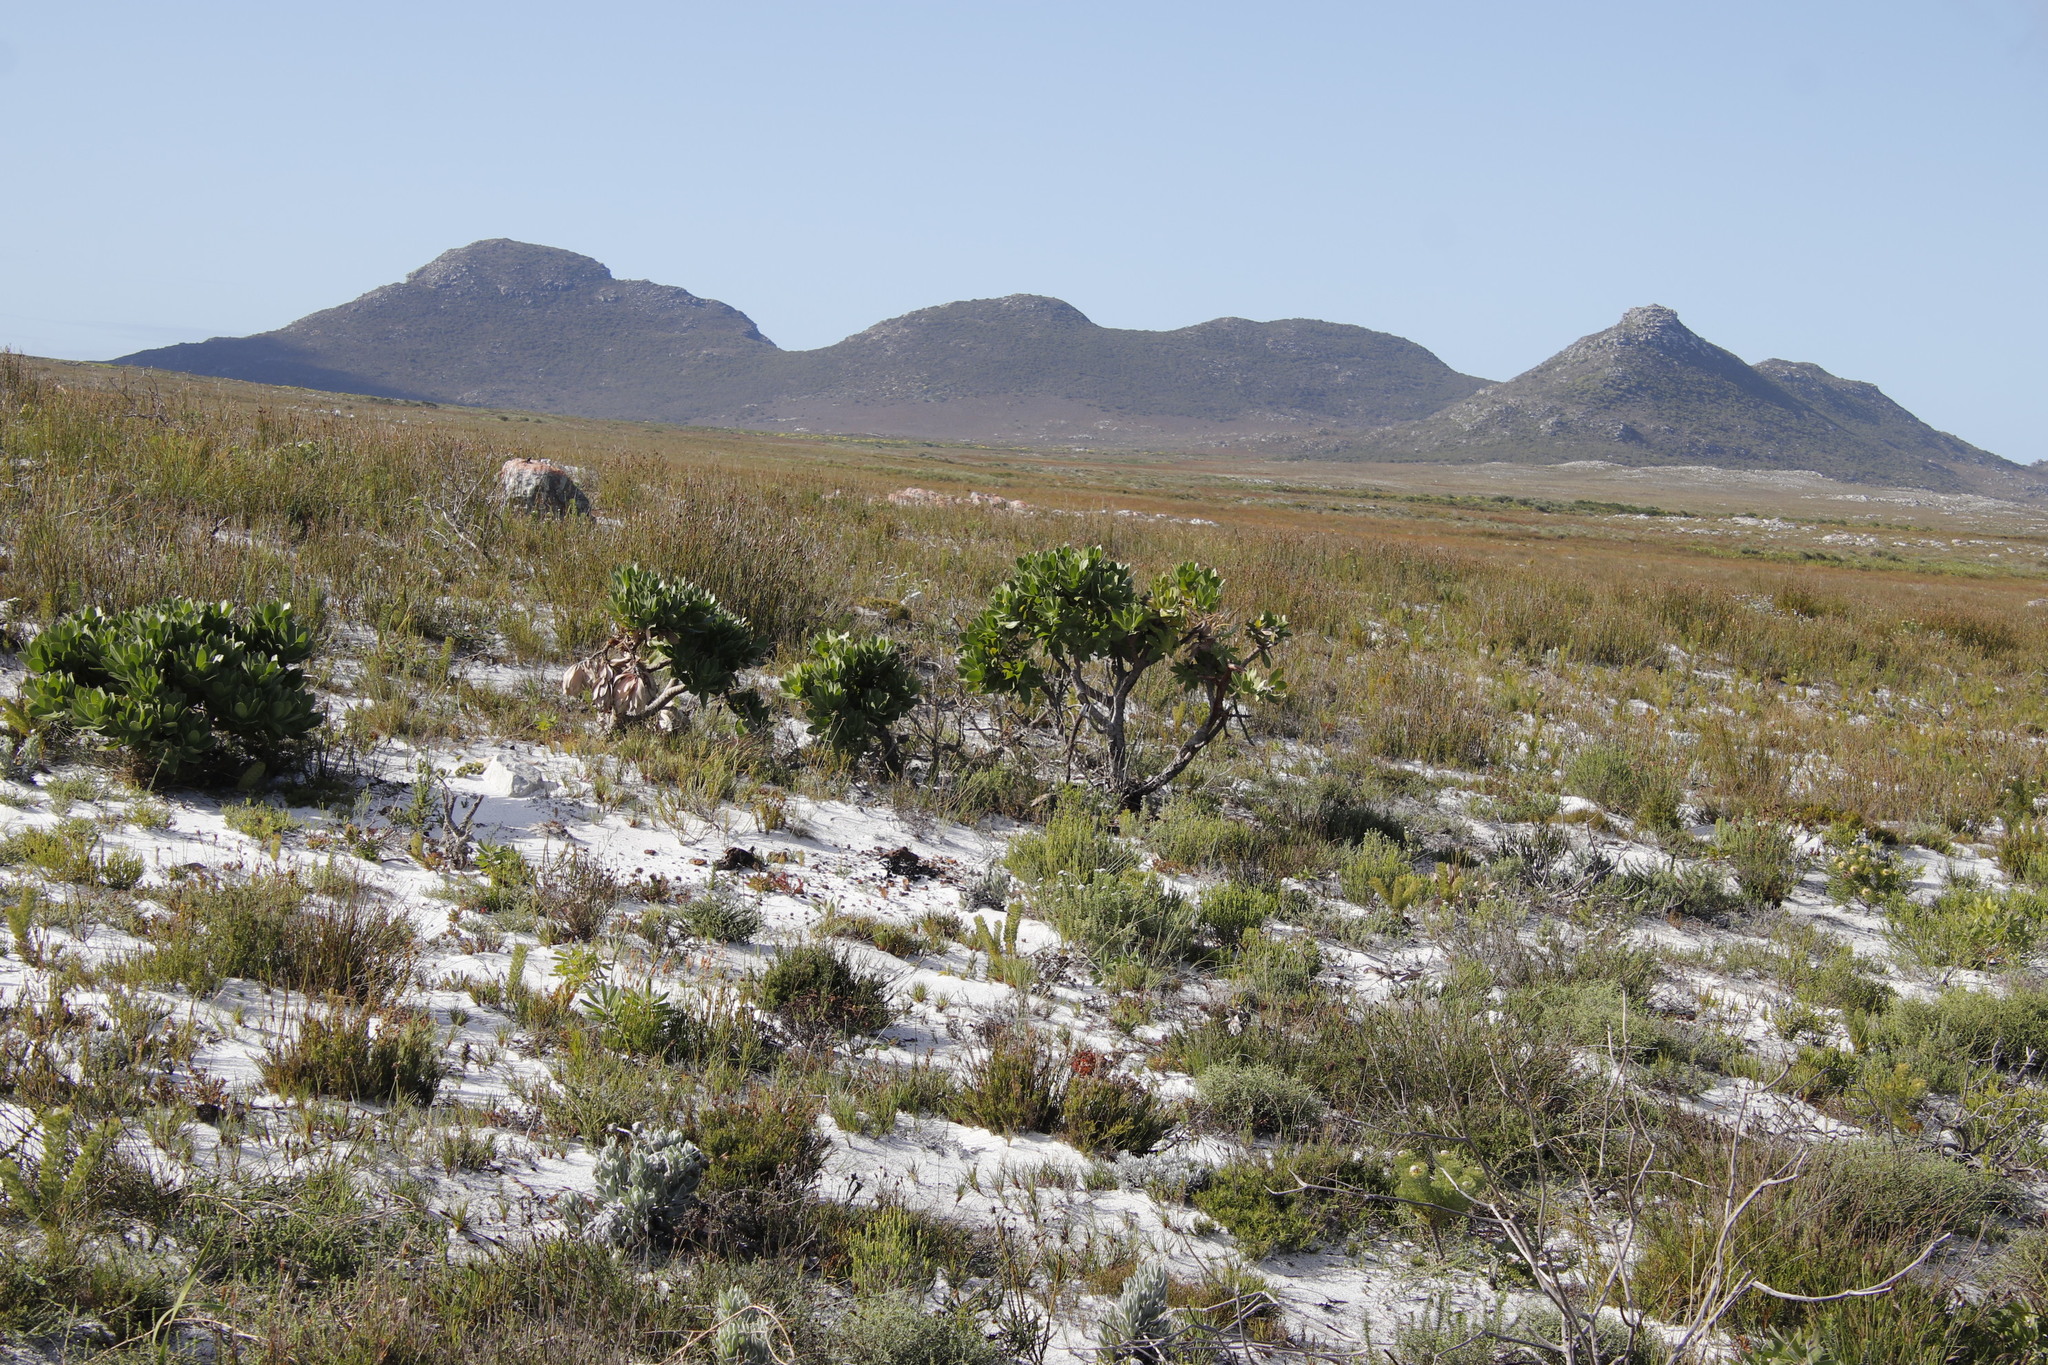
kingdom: Plantae
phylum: Tracheophyta
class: Magnoliopsida
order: Proteales
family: Proteaceae
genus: Leucospermum
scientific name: Leucospermum conocarpodendron
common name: Tree pincushion
